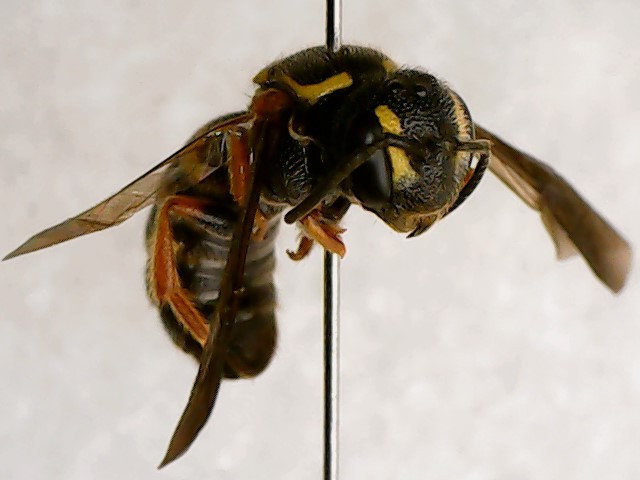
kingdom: Animalia
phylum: Arthropoda
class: Insecta
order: Hymenoptera
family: Megachilidae
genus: Stelis
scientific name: Stelis louisae
